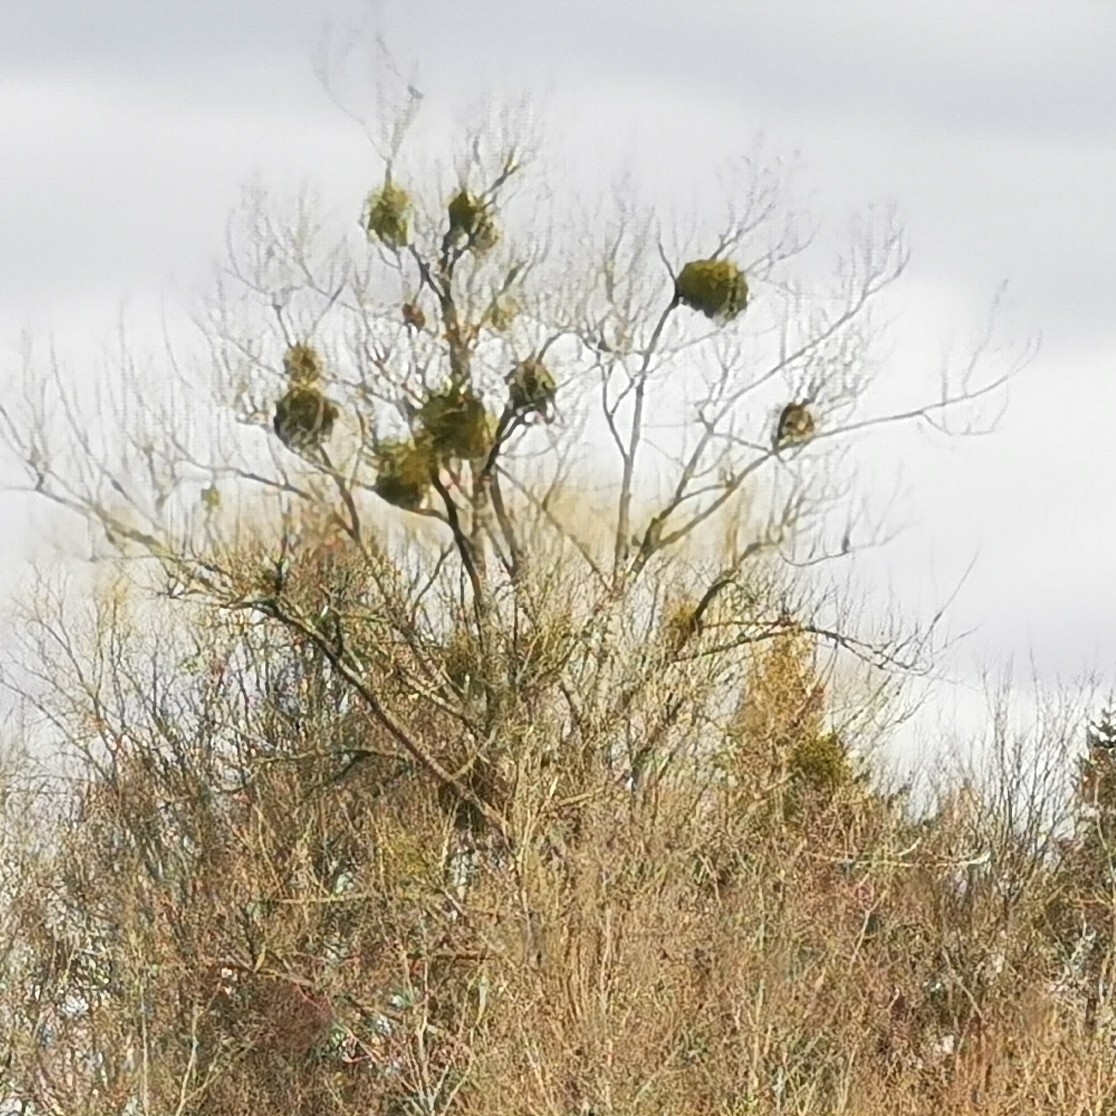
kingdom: Plantae
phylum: Tracheophyta
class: Magnoliopsida
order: Santalales
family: Viscaceae
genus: Viscum
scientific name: Viscum album
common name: Mistletoe
